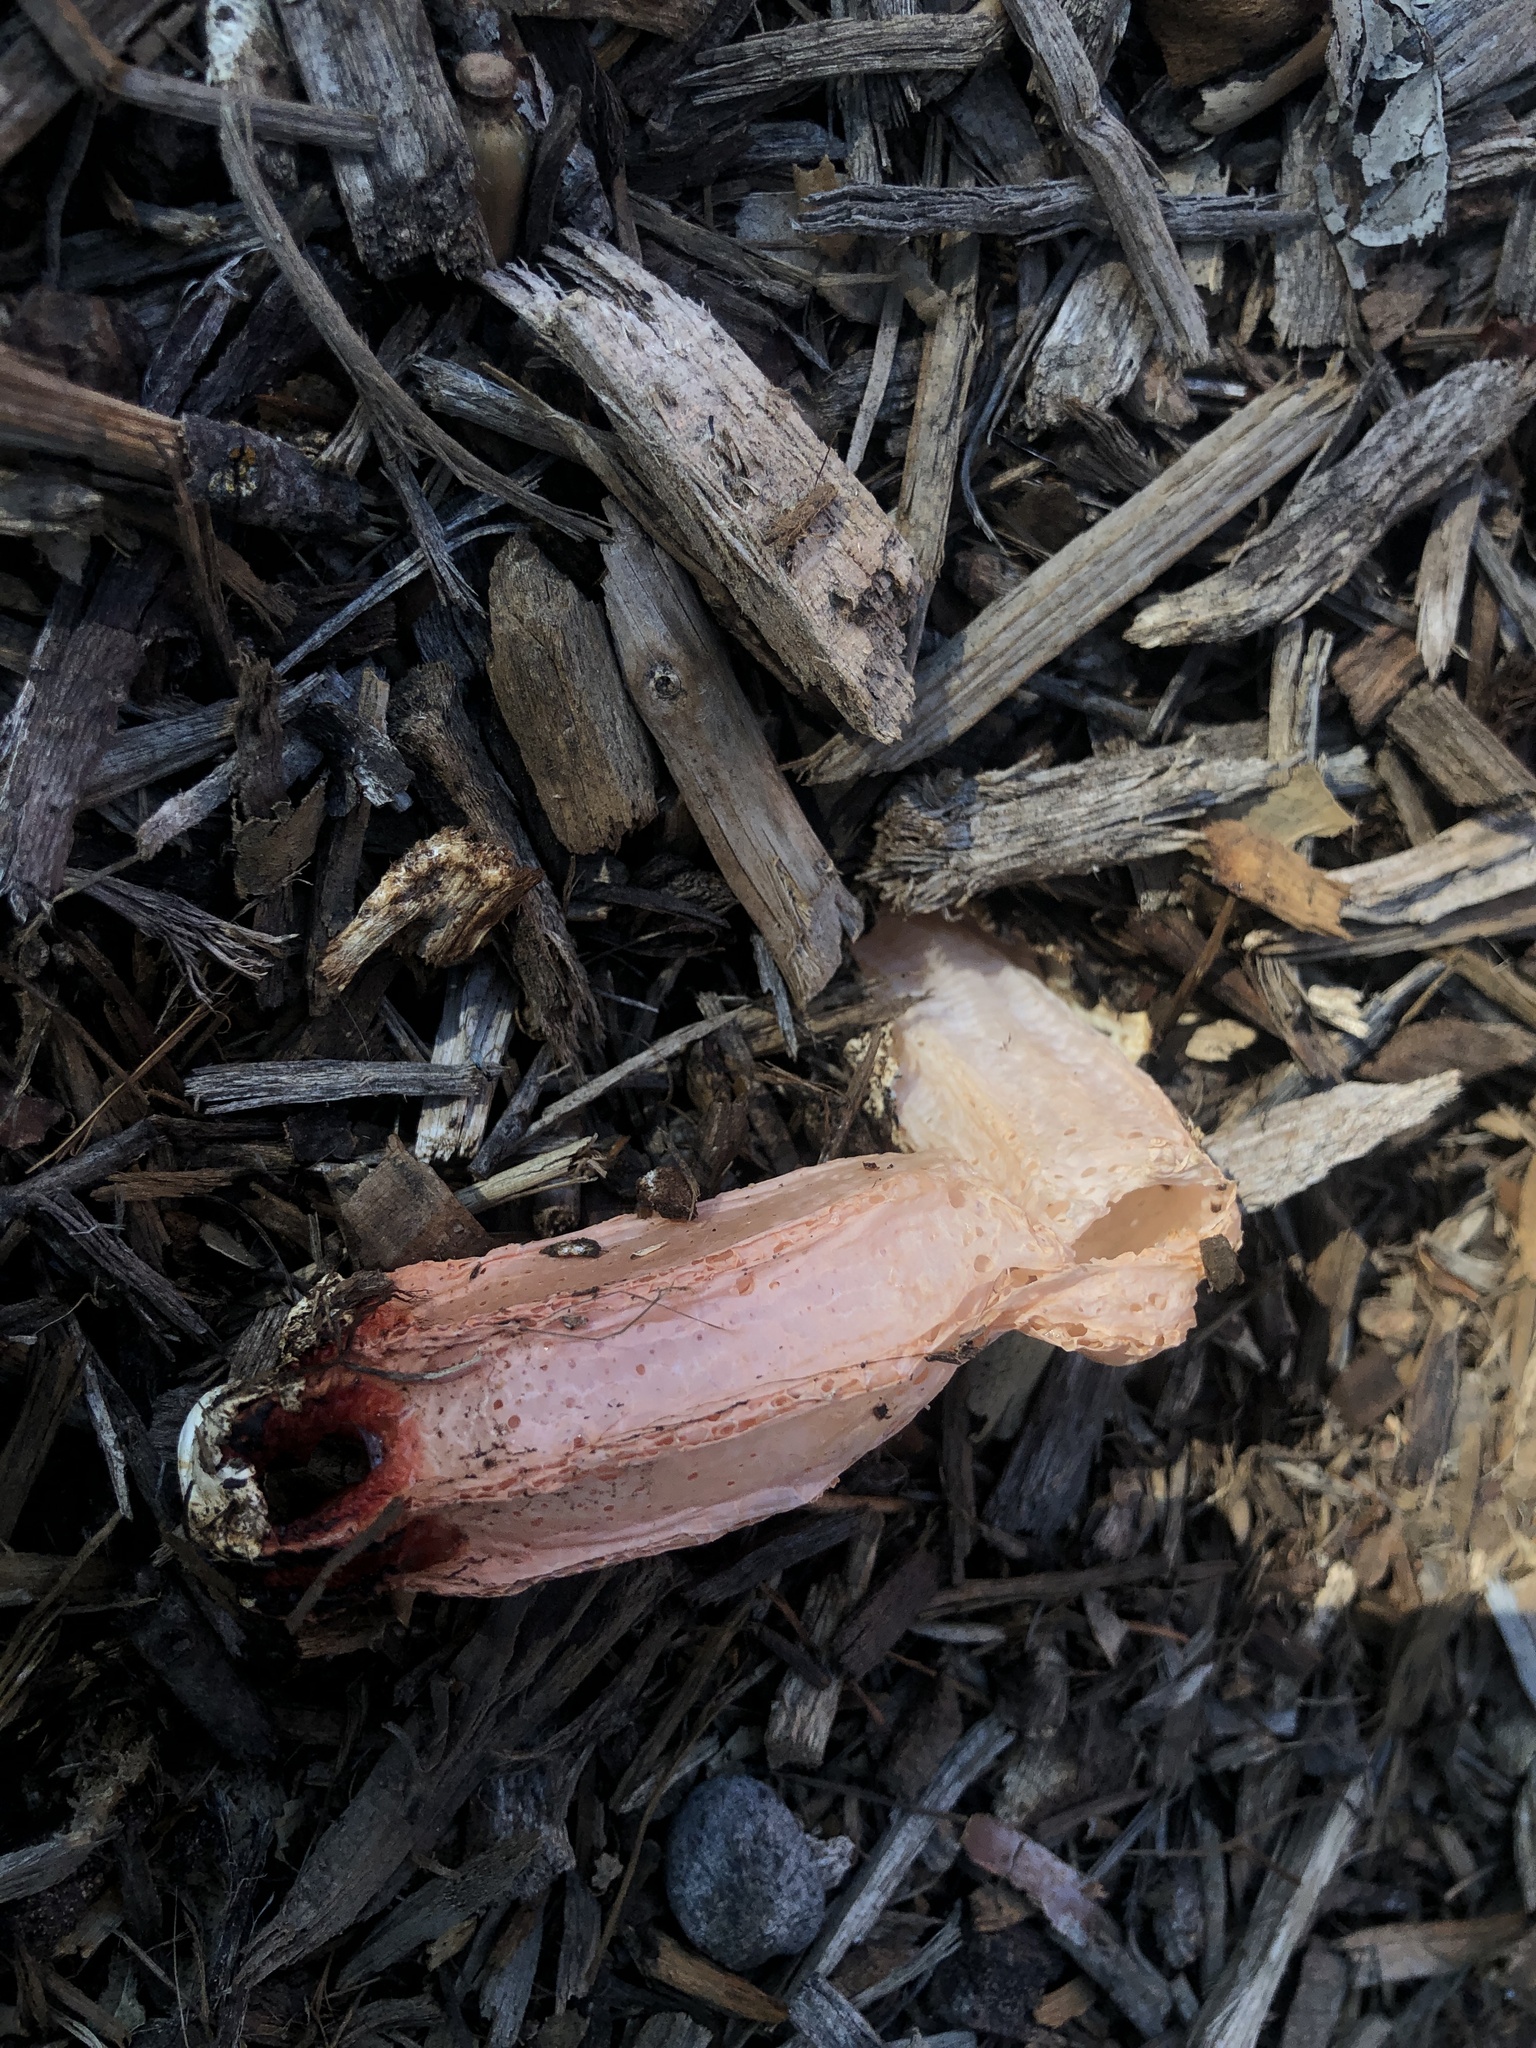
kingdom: Fungi
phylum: Basidiomycota
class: Agaricomycetes
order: Phallales
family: Phallaceae
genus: Lysurus
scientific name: Lysurus mokusin
